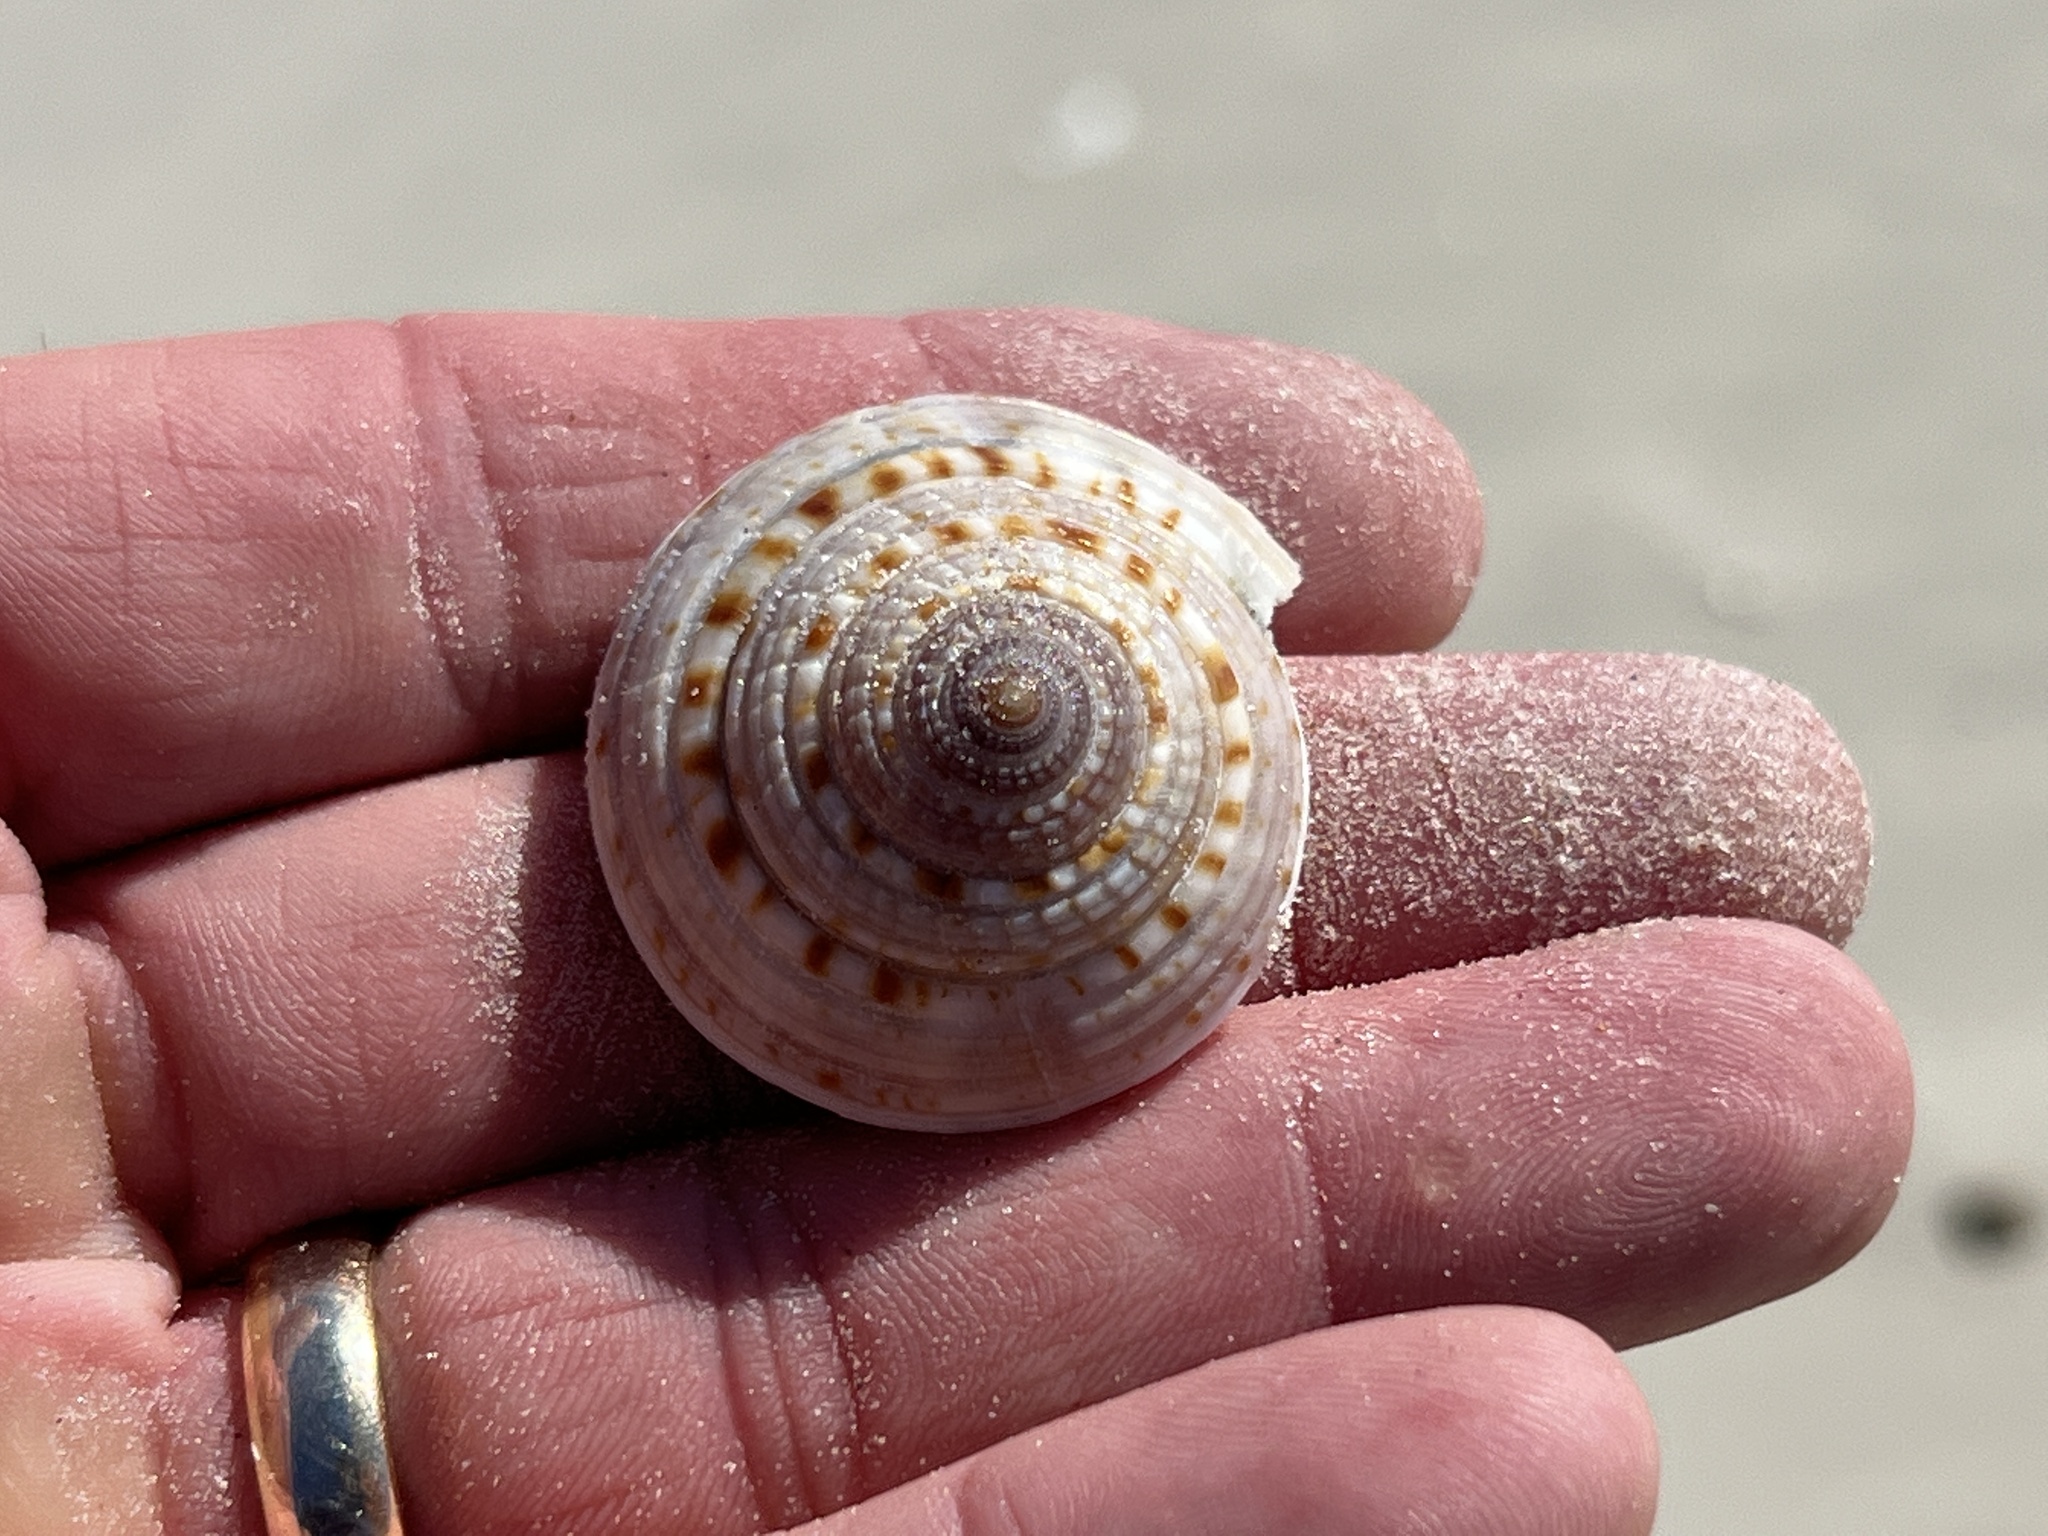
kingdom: Animalia
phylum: Mollusca
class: Gastropoda
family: Architectonicidae
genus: Architectonica
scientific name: Architectonica nobilis
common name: Common sundial
